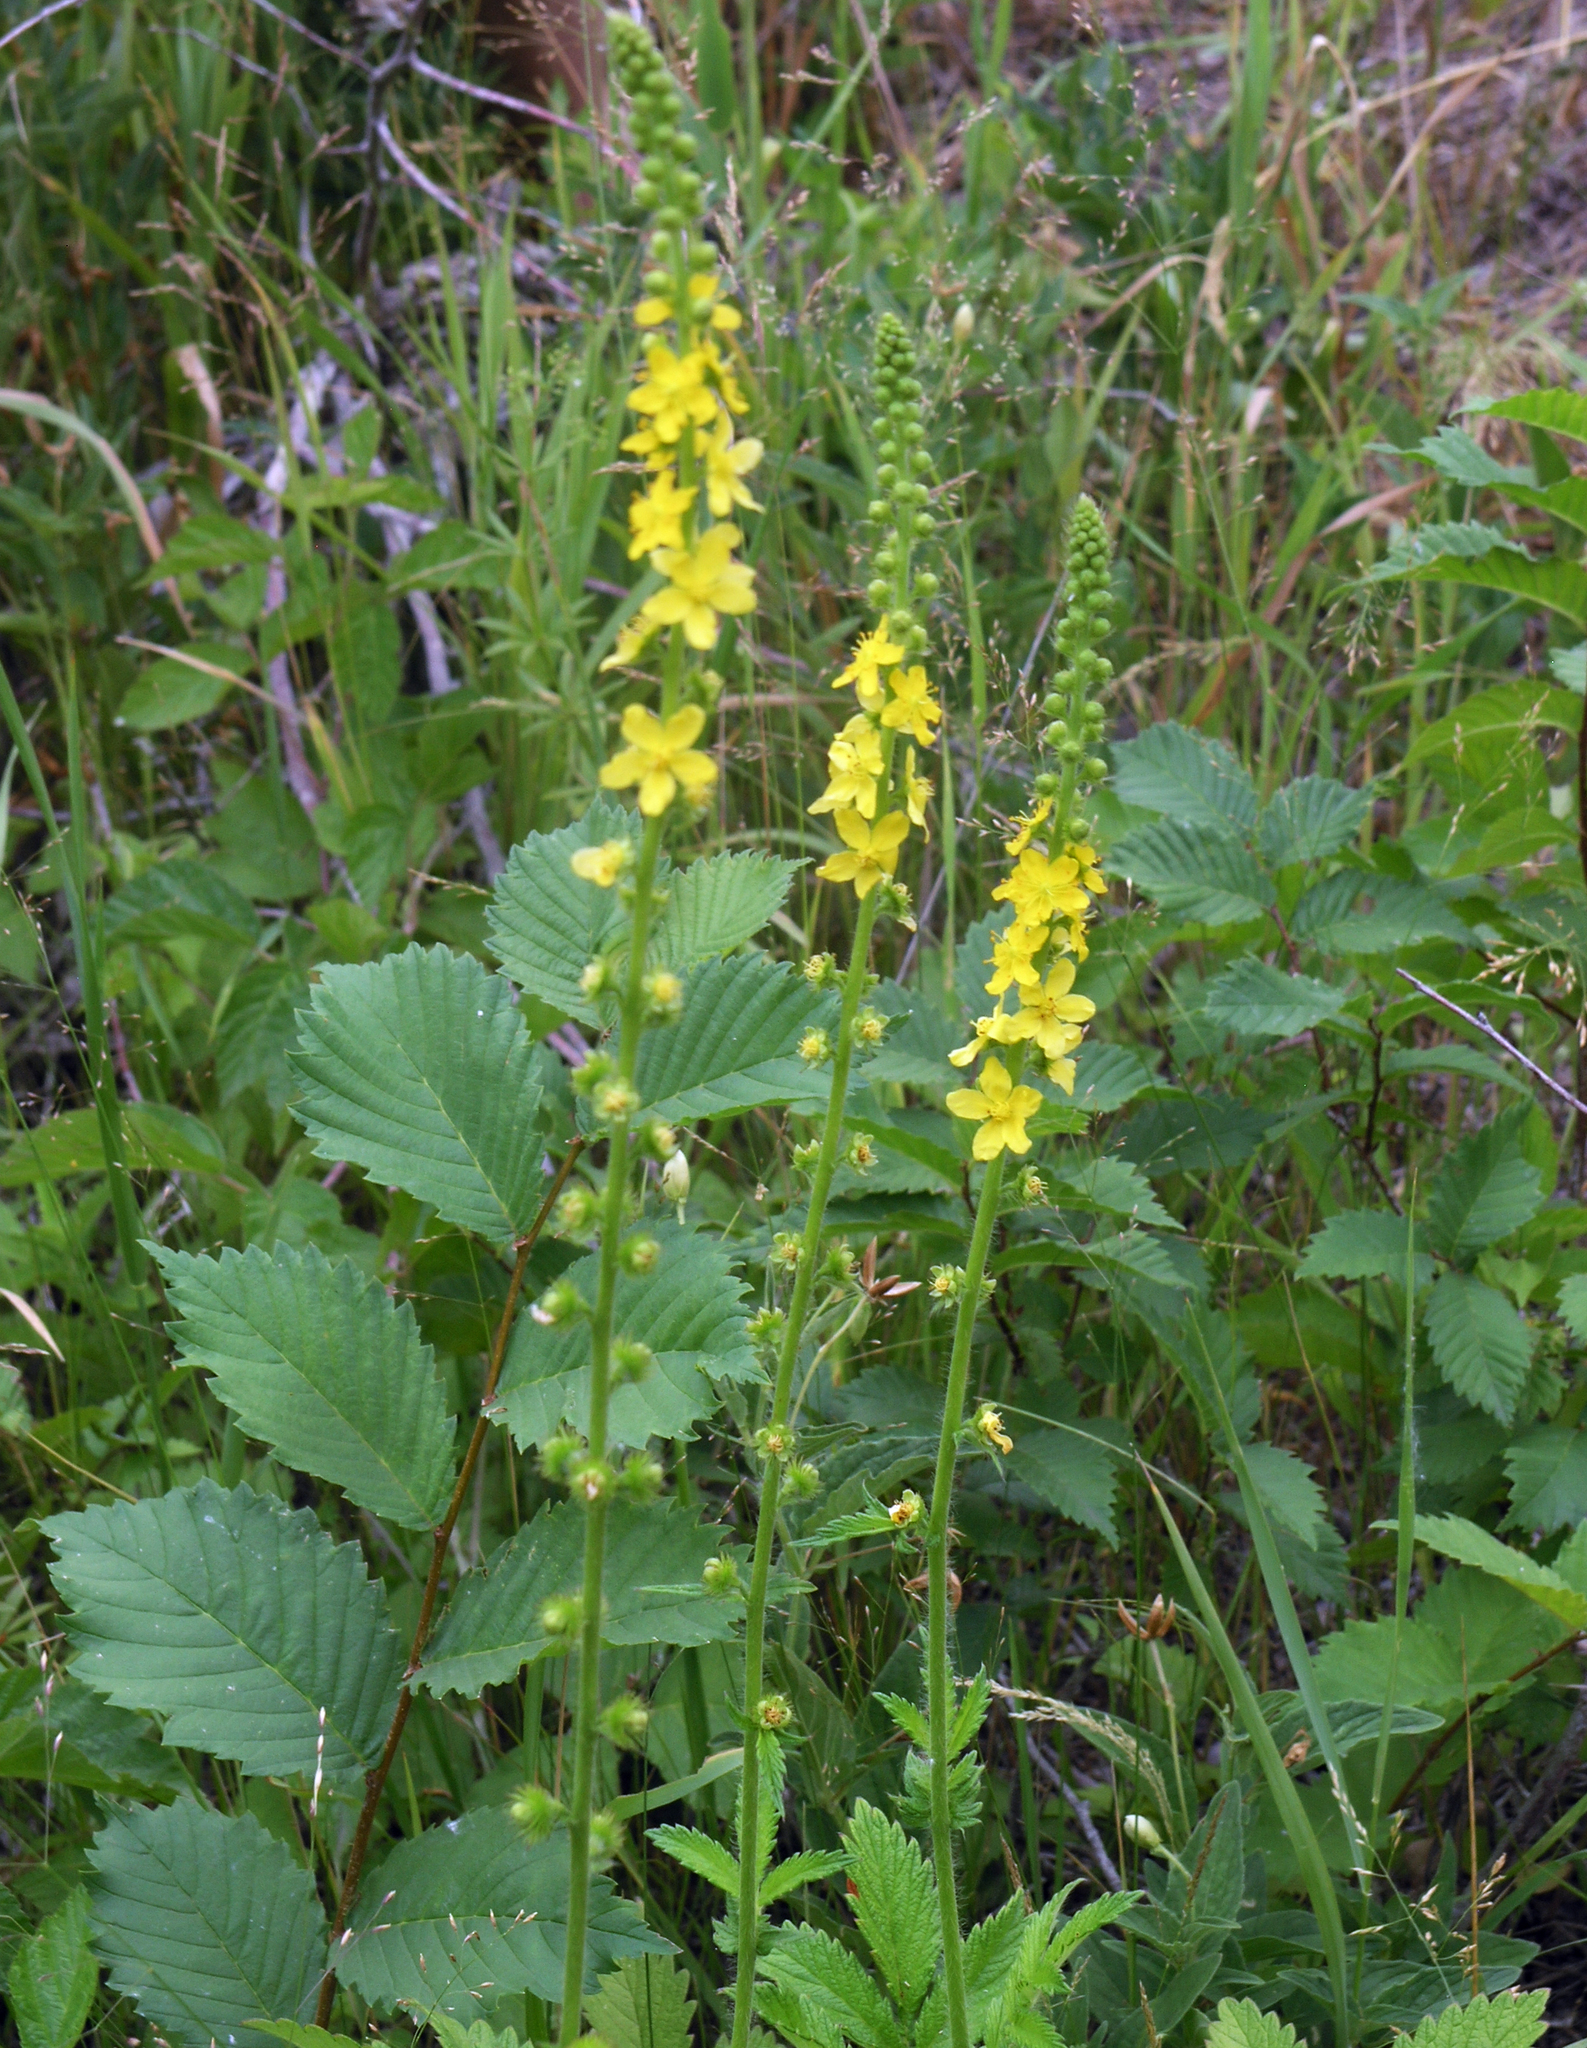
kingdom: Plantae
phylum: Tracheophyta
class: Magnoliopsida
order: Rosales
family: Rosaceae
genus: Agrimonia
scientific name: Agrimonia eupatoria
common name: Agrimony
